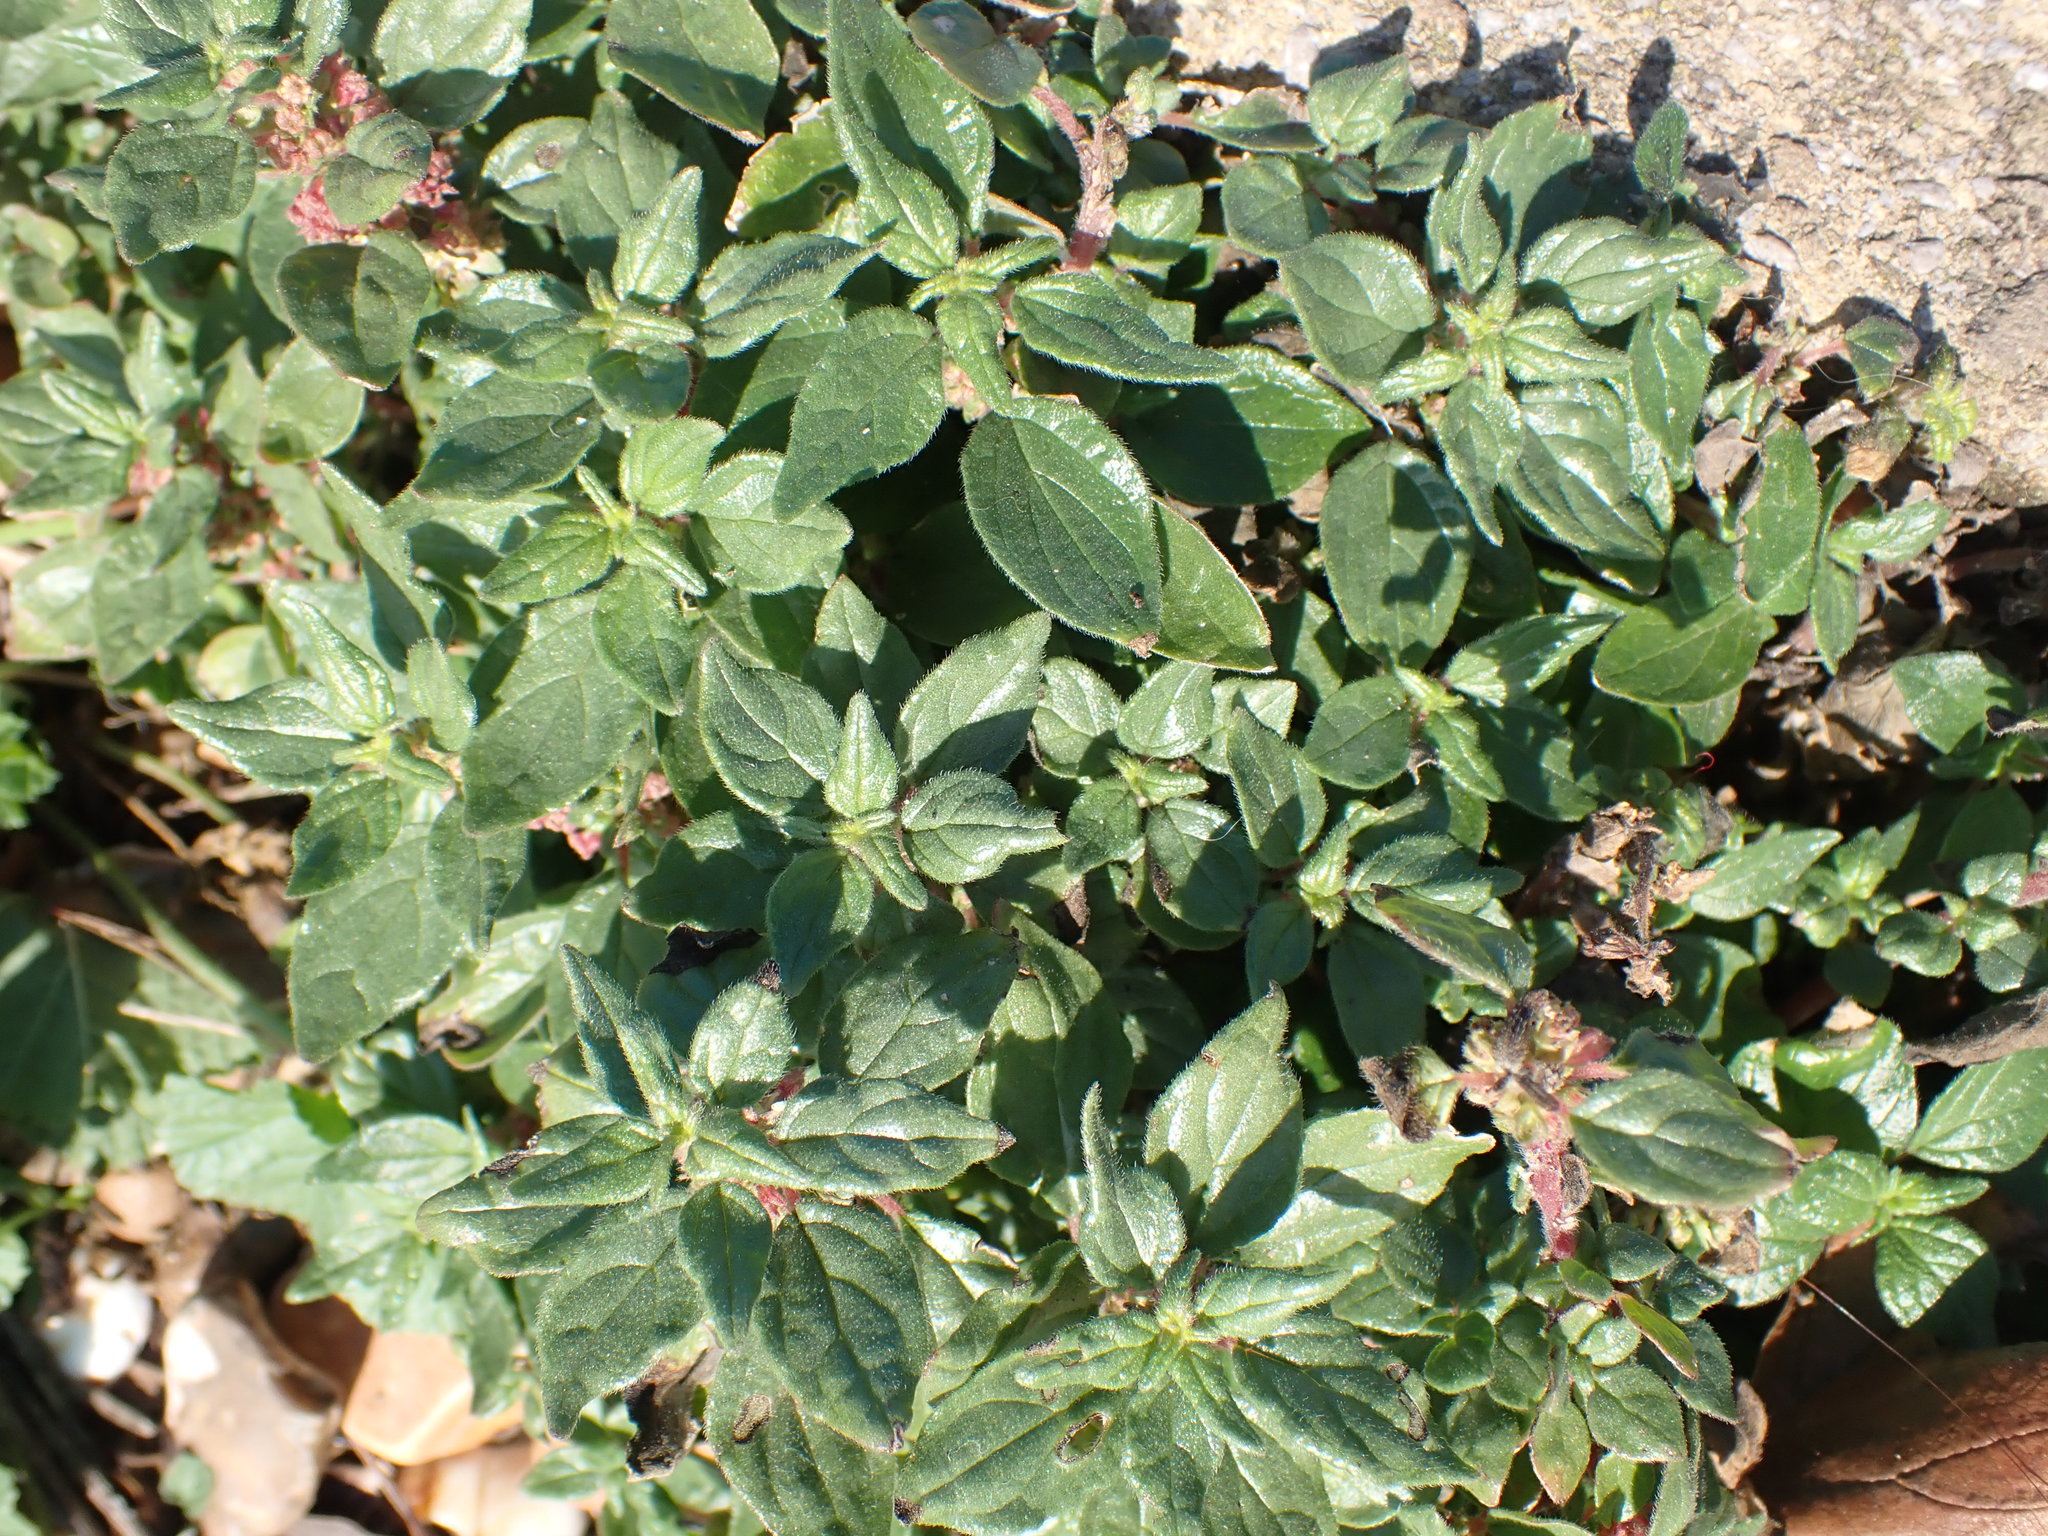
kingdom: Plantae
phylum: Tracheophyta
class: Magnoliopsida
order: Rosales
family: Urticaceae
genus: Parietaria
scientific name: Parietaria judaica
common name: Pellitory-of-the-wall
